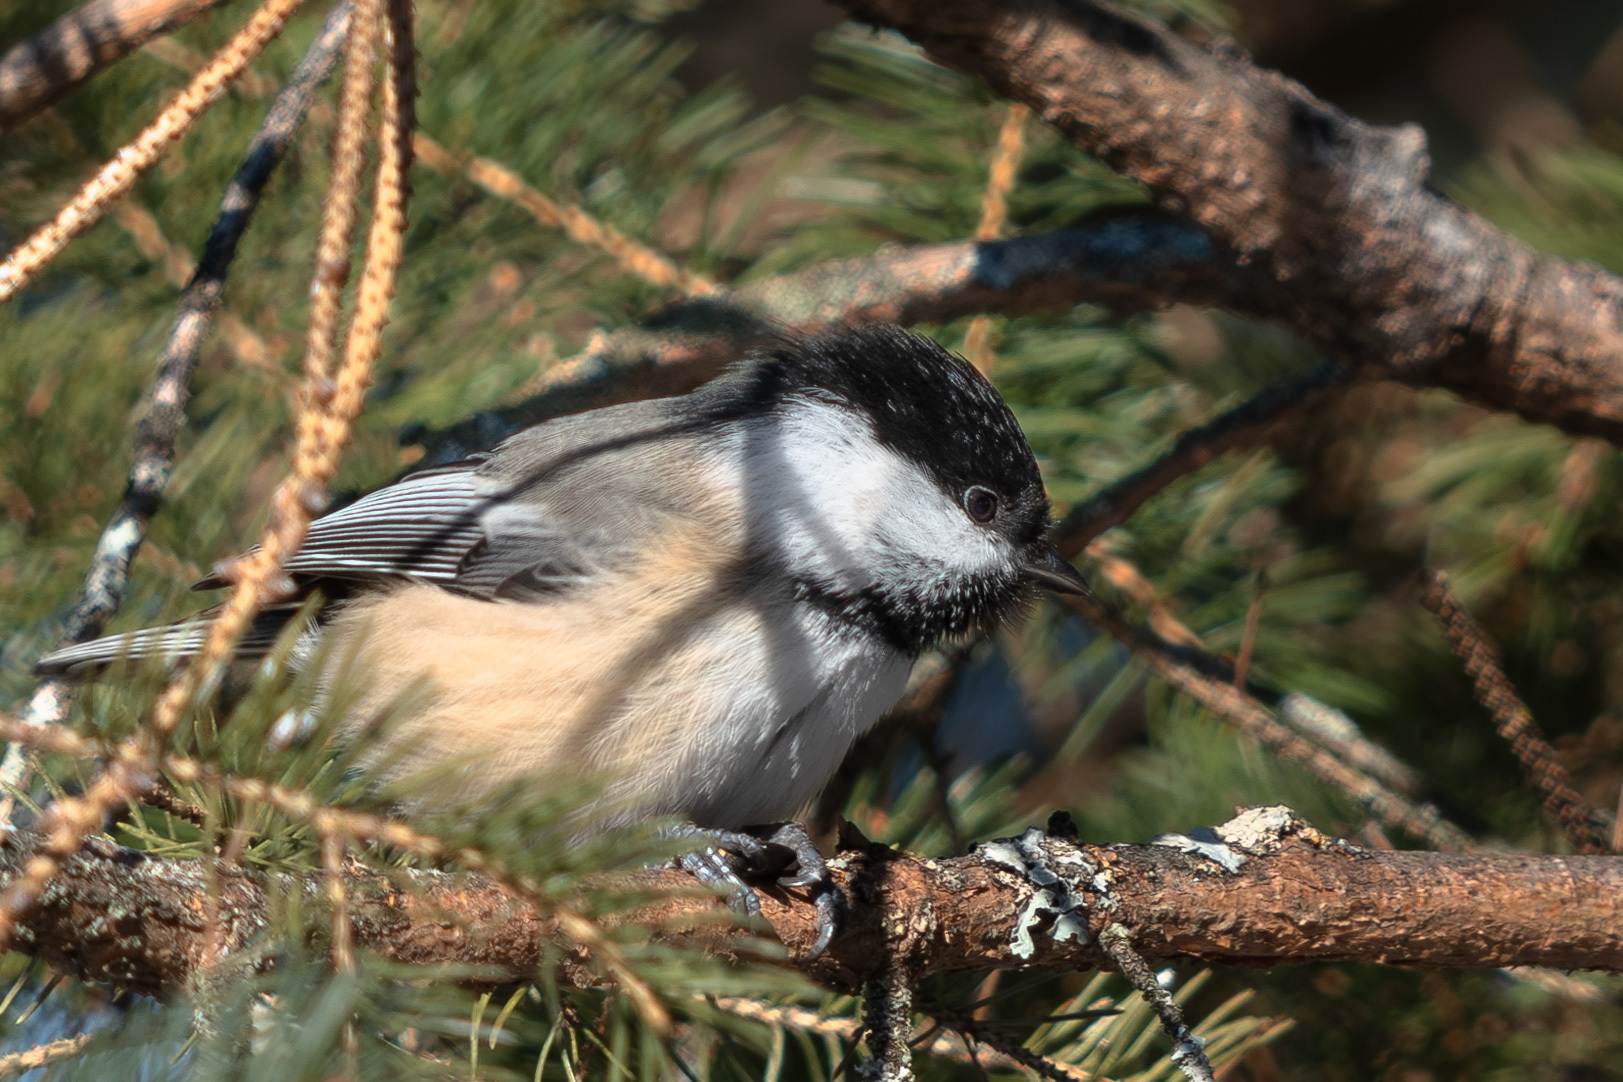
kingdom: Animalia
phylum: Chordata
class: Aves
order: Passeriformes
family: Paridae
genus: Poecile
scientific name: Poecile atricapillus
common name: Black-capped chickadee
